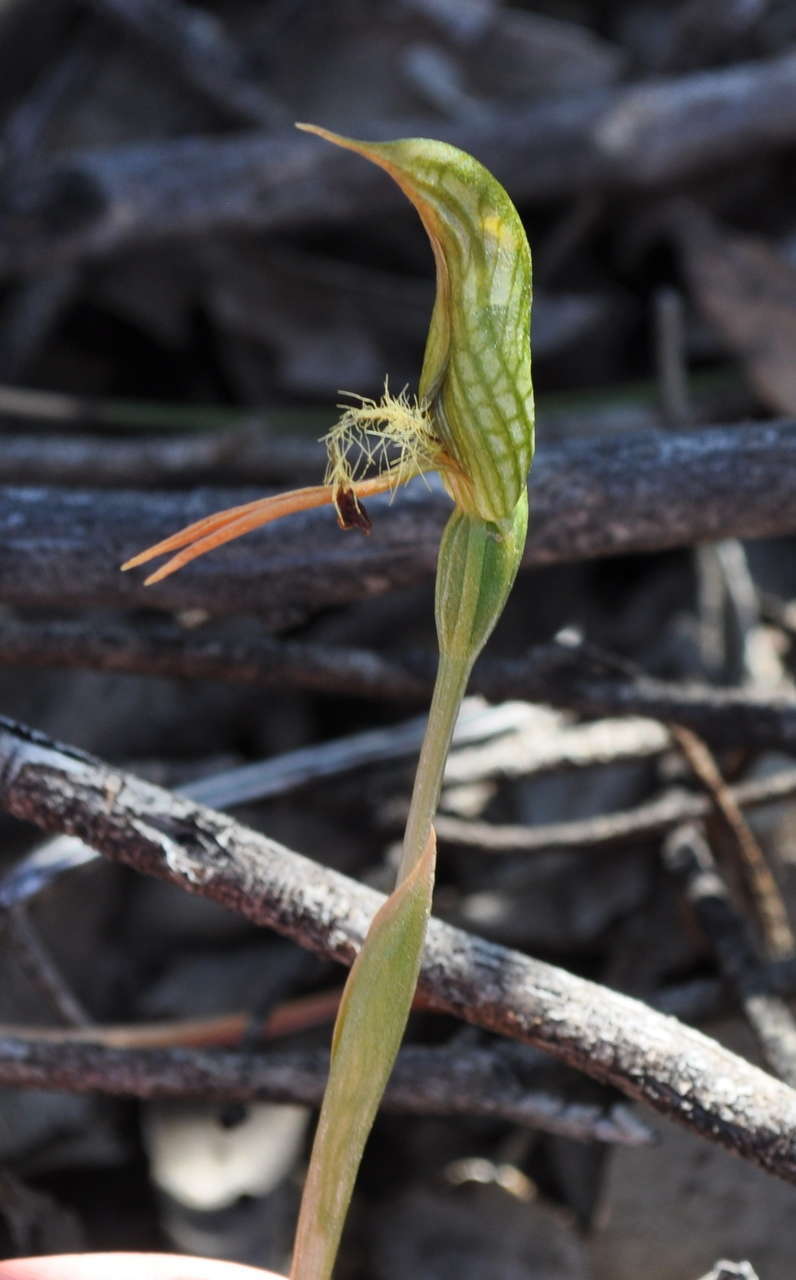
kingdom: Plantae
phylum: Tracheophyta
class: Liliopsida
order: Asparagales
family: Orchidaceae
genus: Pterostylis
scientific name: Pterostylis plumosa
